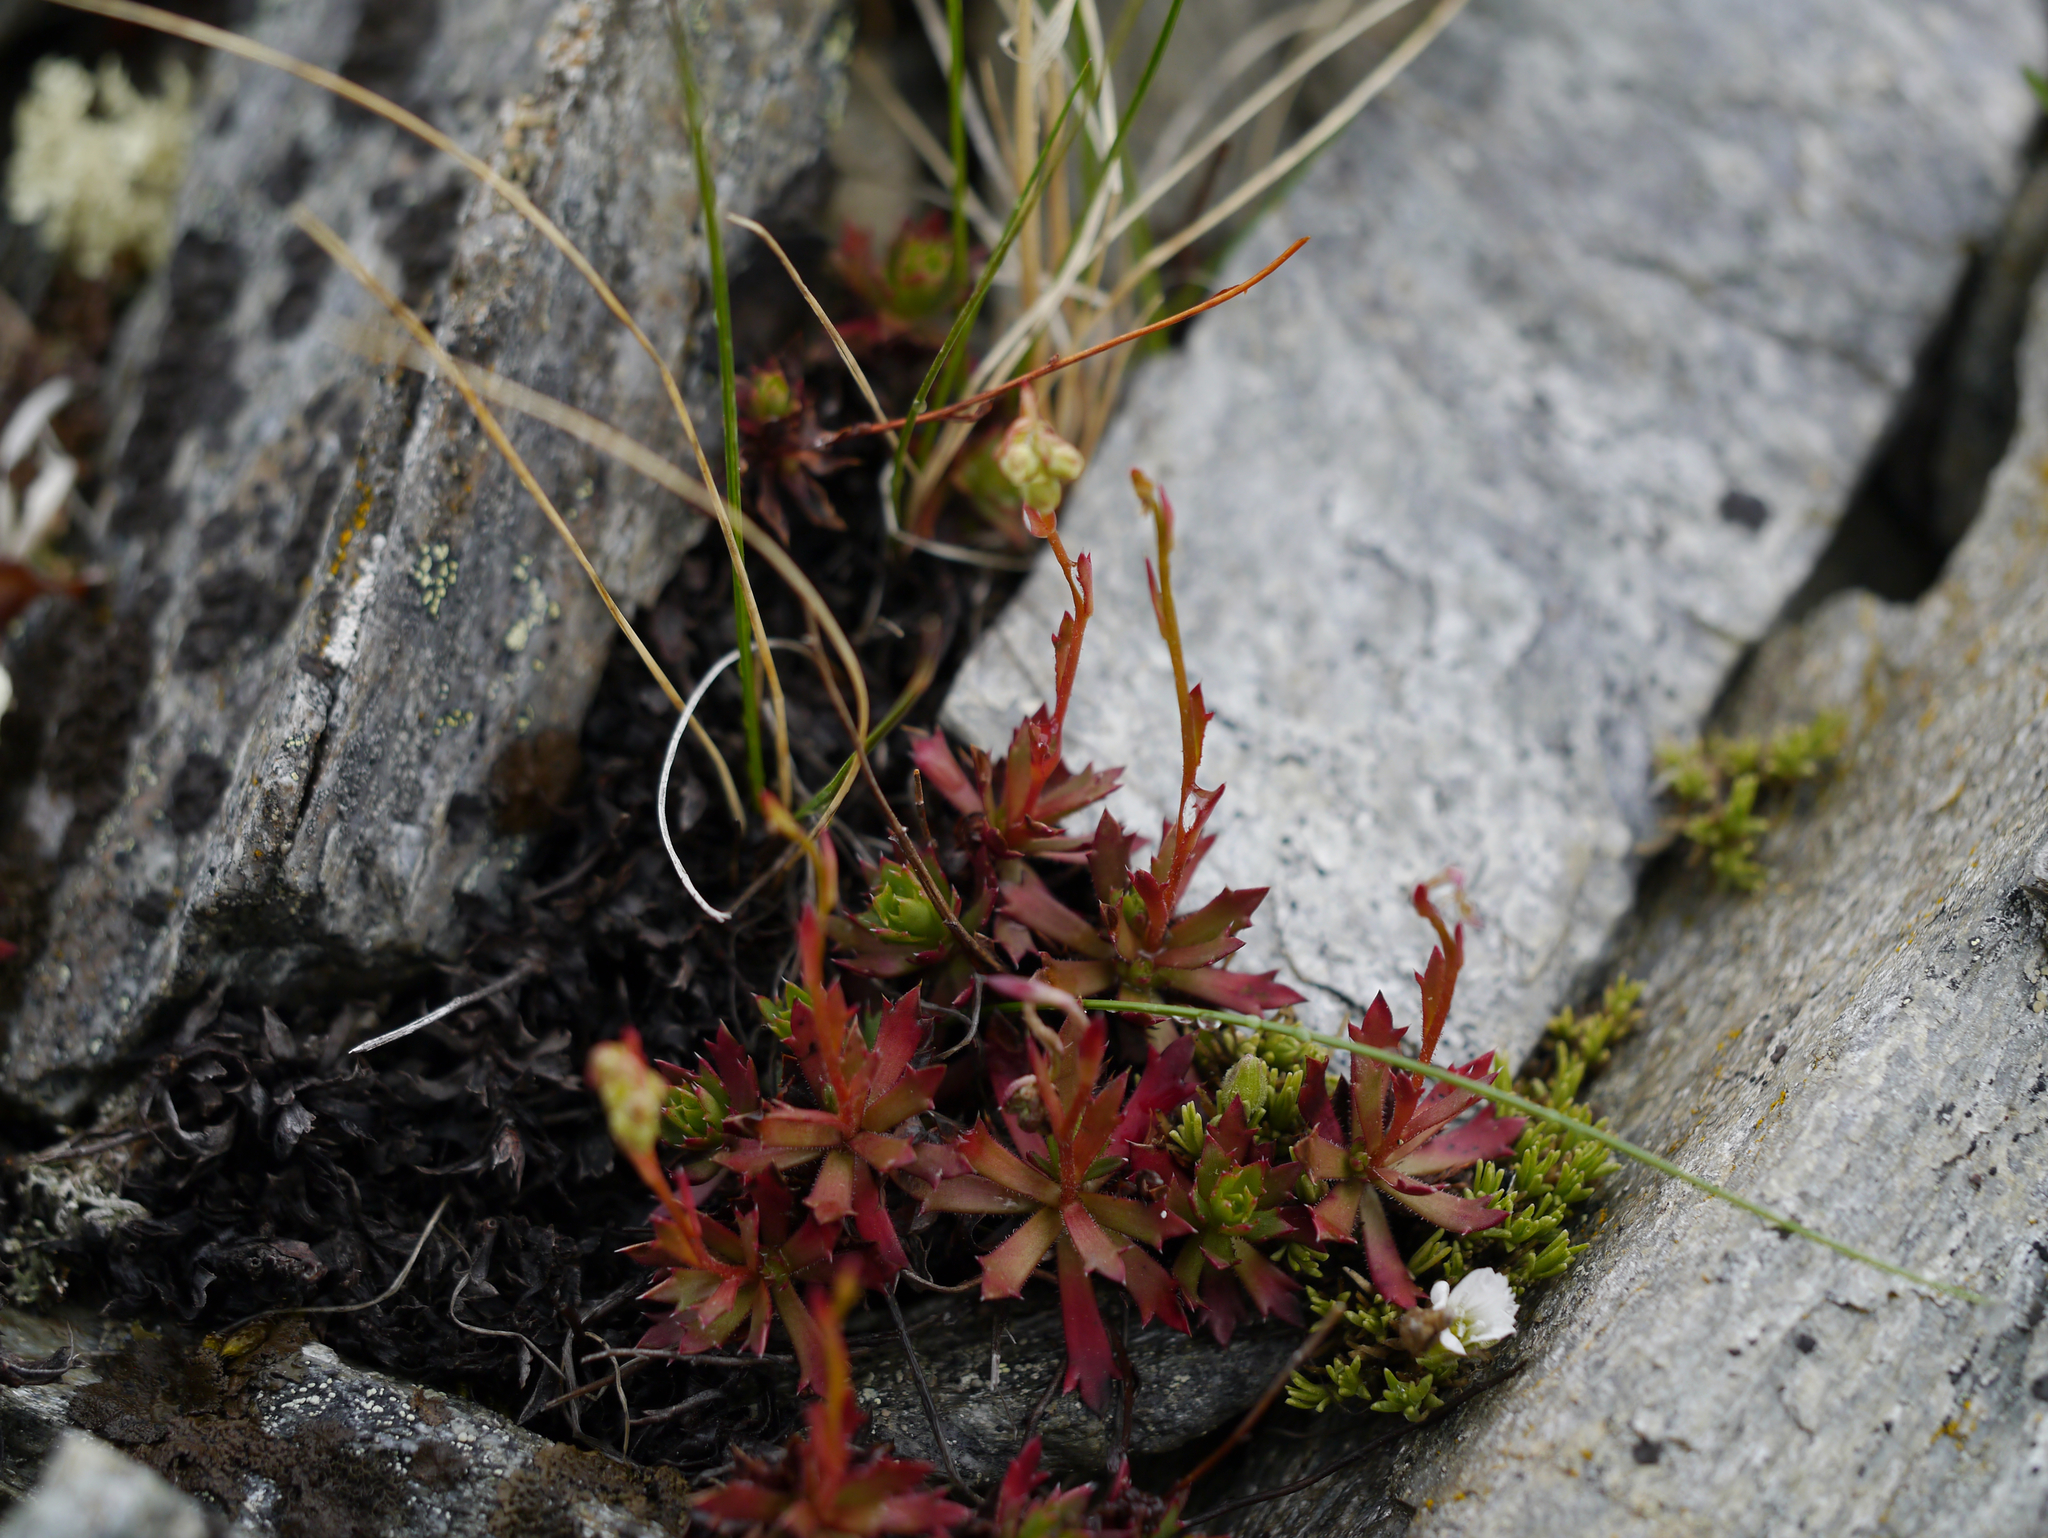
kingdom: Plantae
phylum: Tracheophyta
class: Magnoliopsida
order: Saxifragales
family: Saxifragaceae
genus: Saxifraga
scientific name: Saxifraga tricuspidata
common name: Prickly saxifrage
